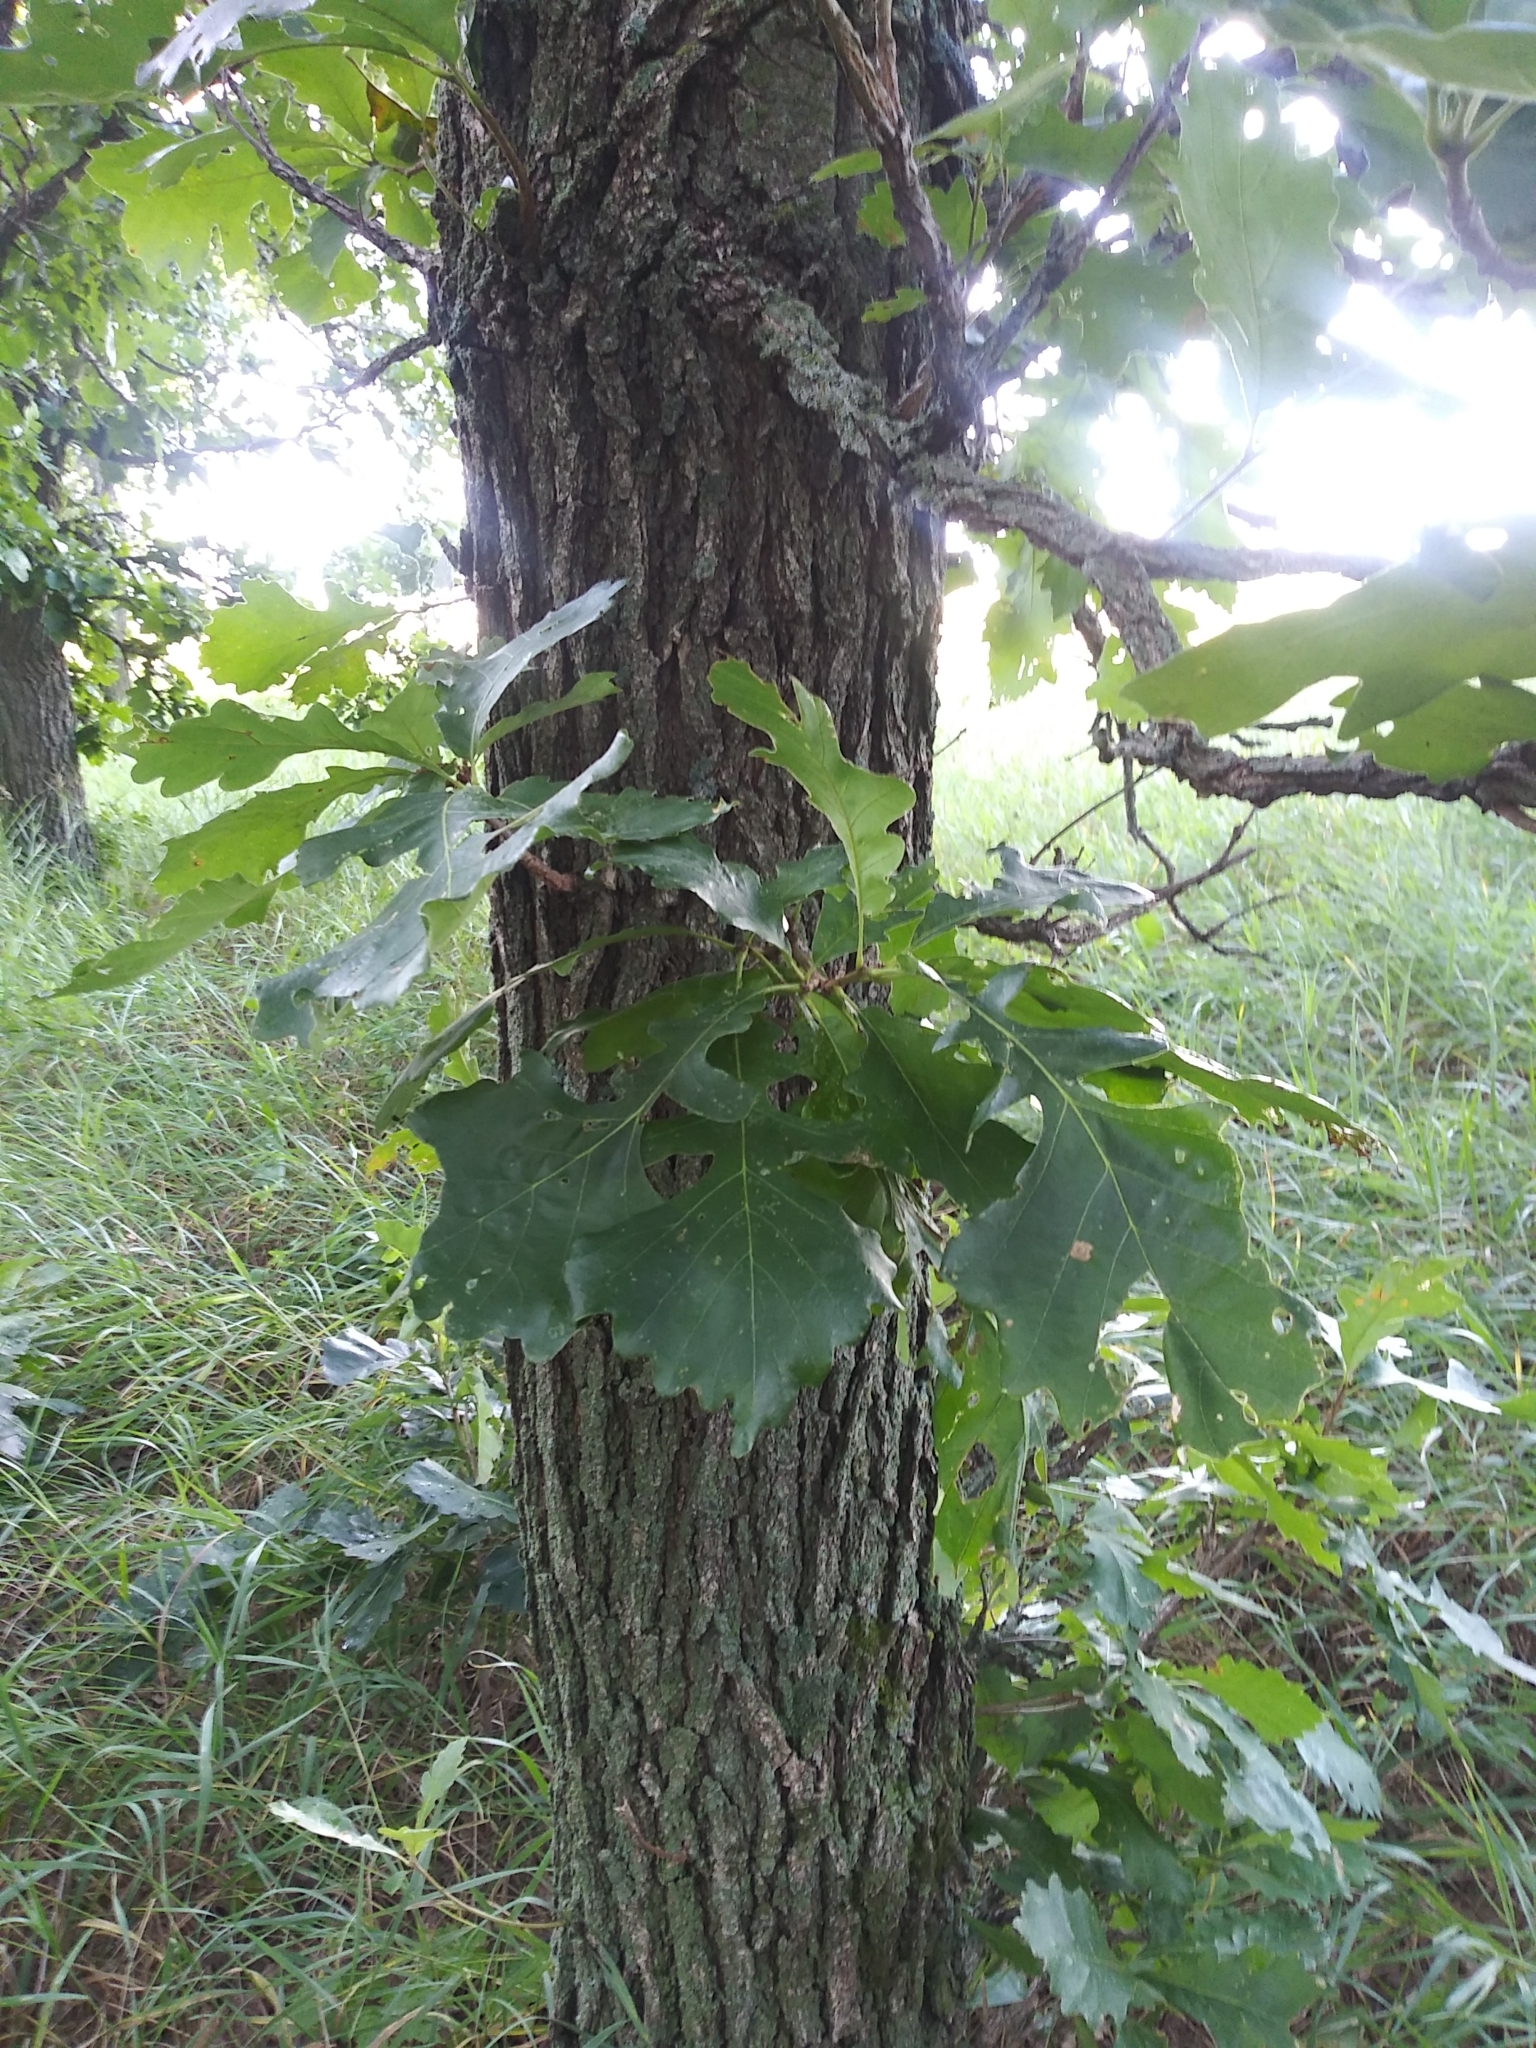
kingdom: Plantae
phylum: Tracheophyta
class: Magnoliopsida
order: Fagales
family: Fagaceae
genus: Quercus
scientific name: Quercus macrocarpa
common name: Bur oak
